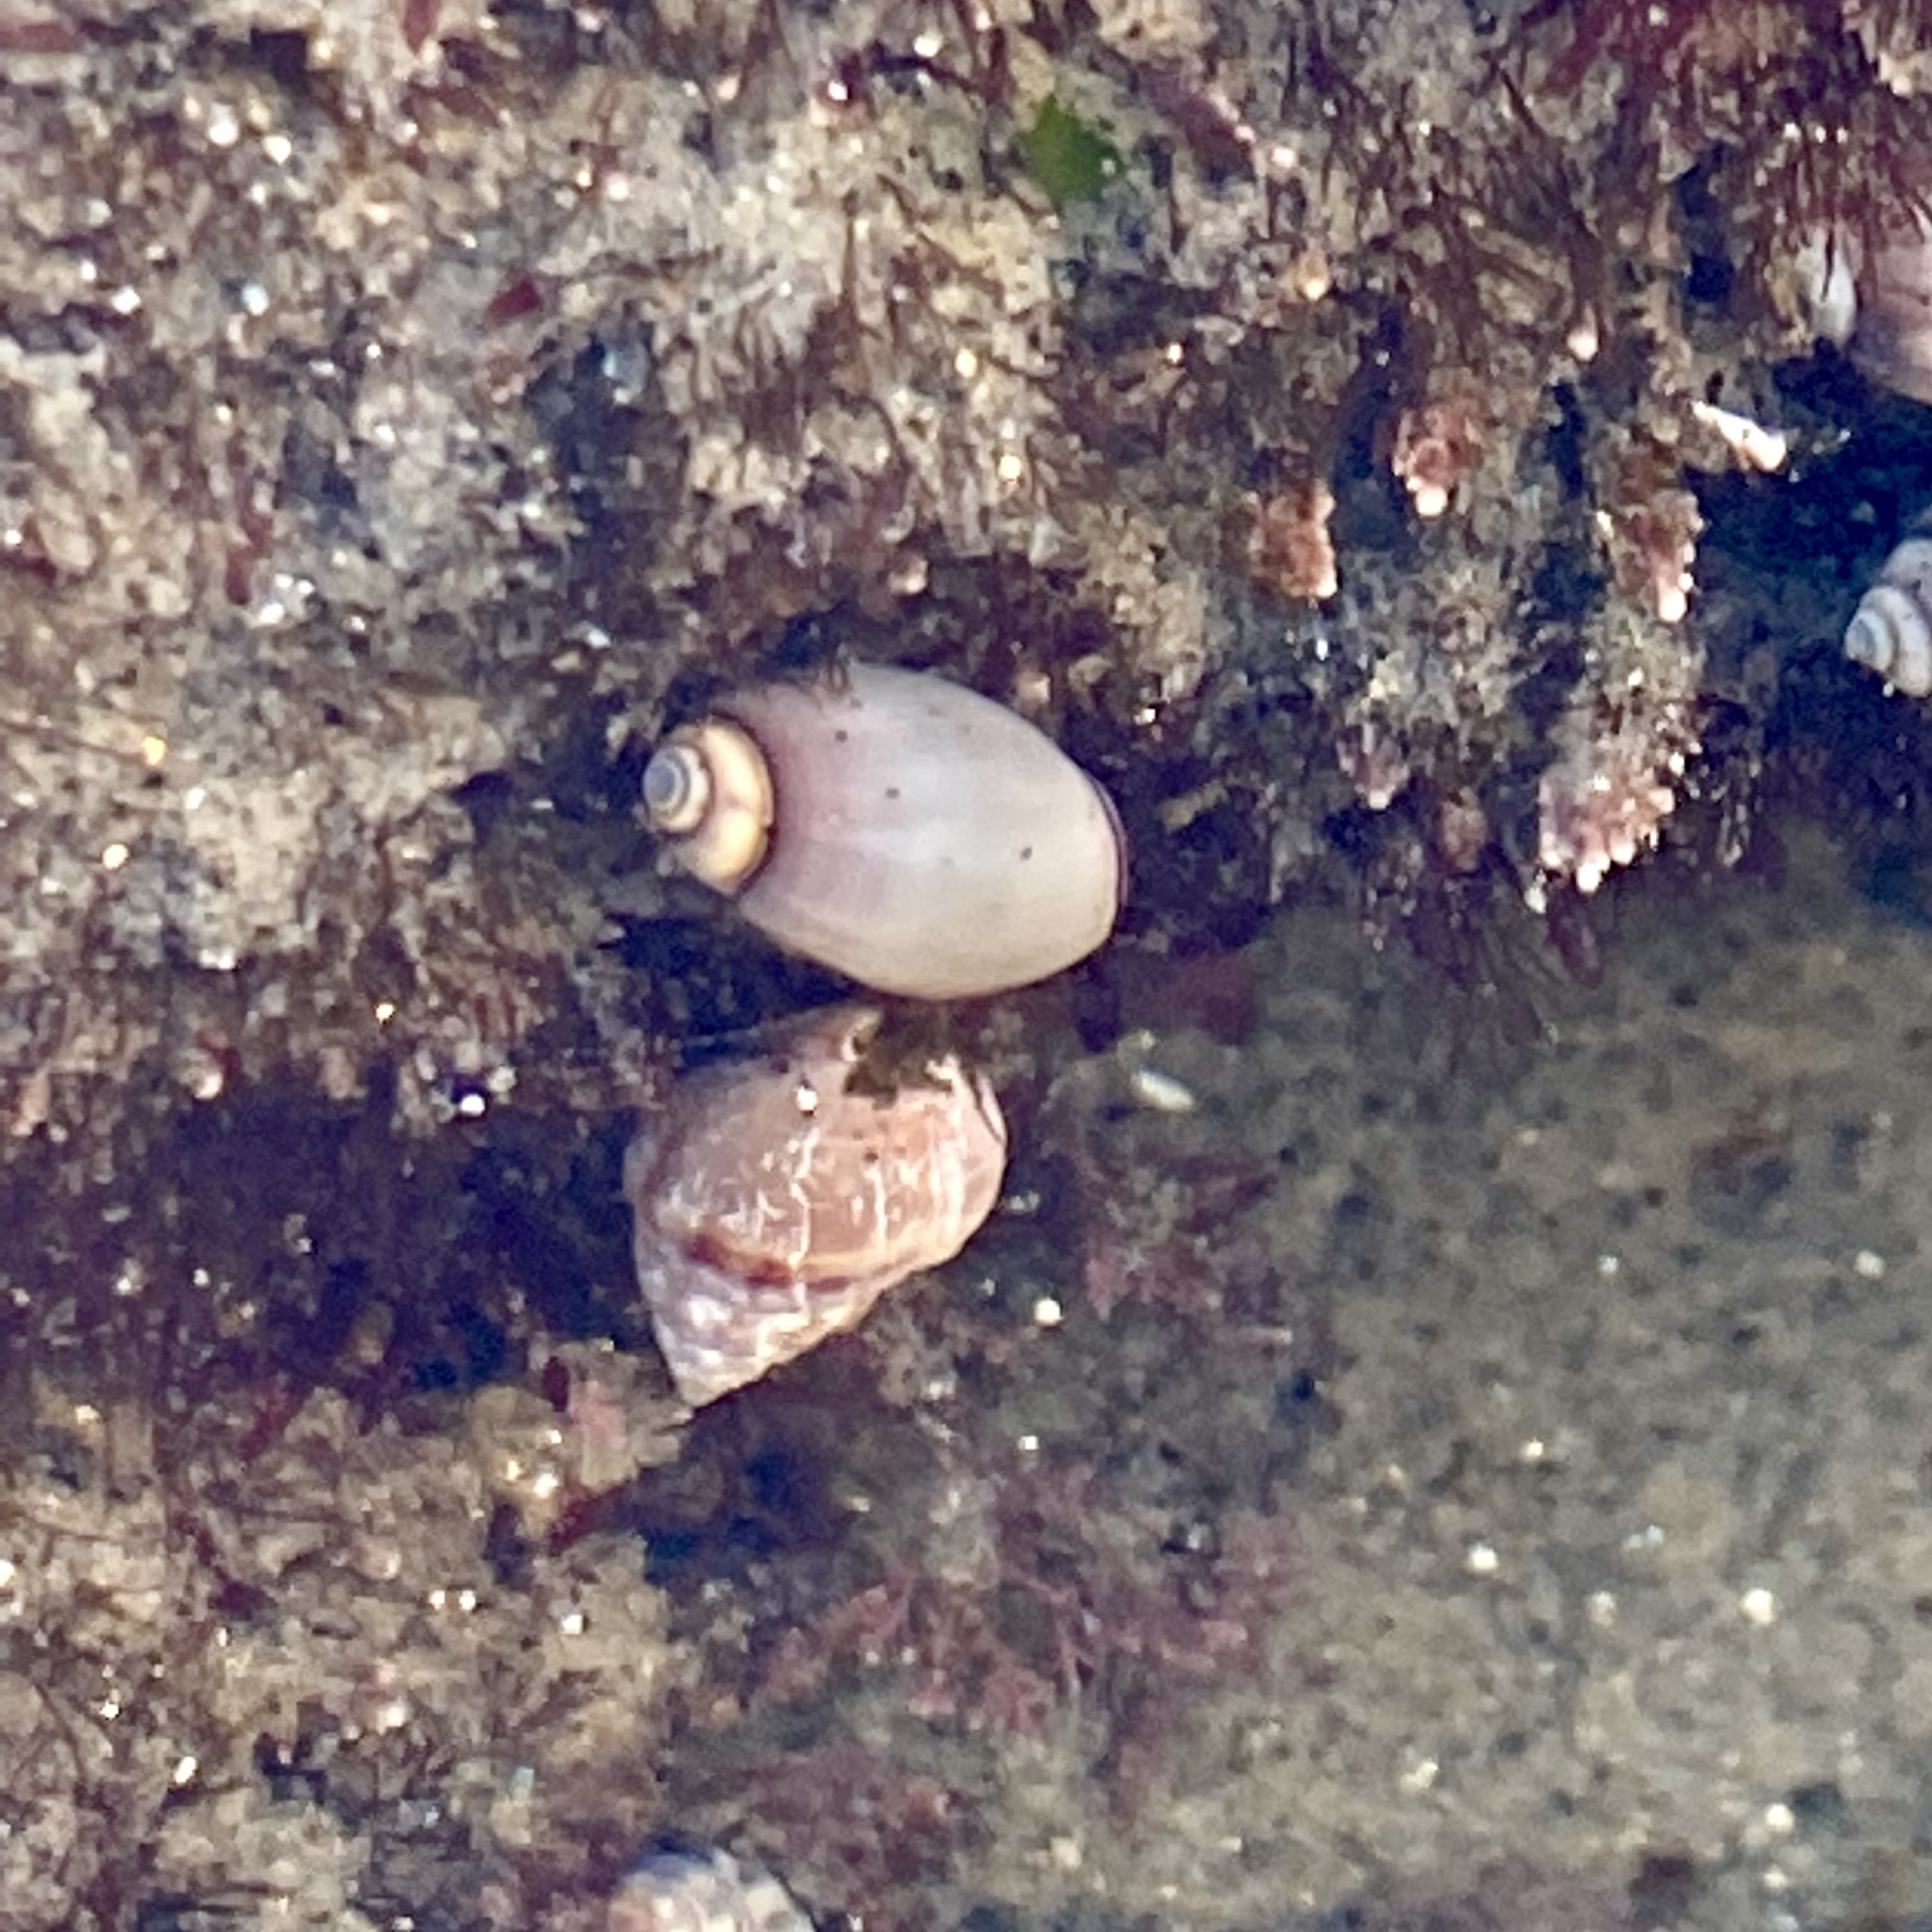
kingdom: Animalia
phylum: Mollusca
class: Gastropoda
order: Neogastropoda
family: Olividae
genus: Callianax
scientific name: Callianax biplicata
